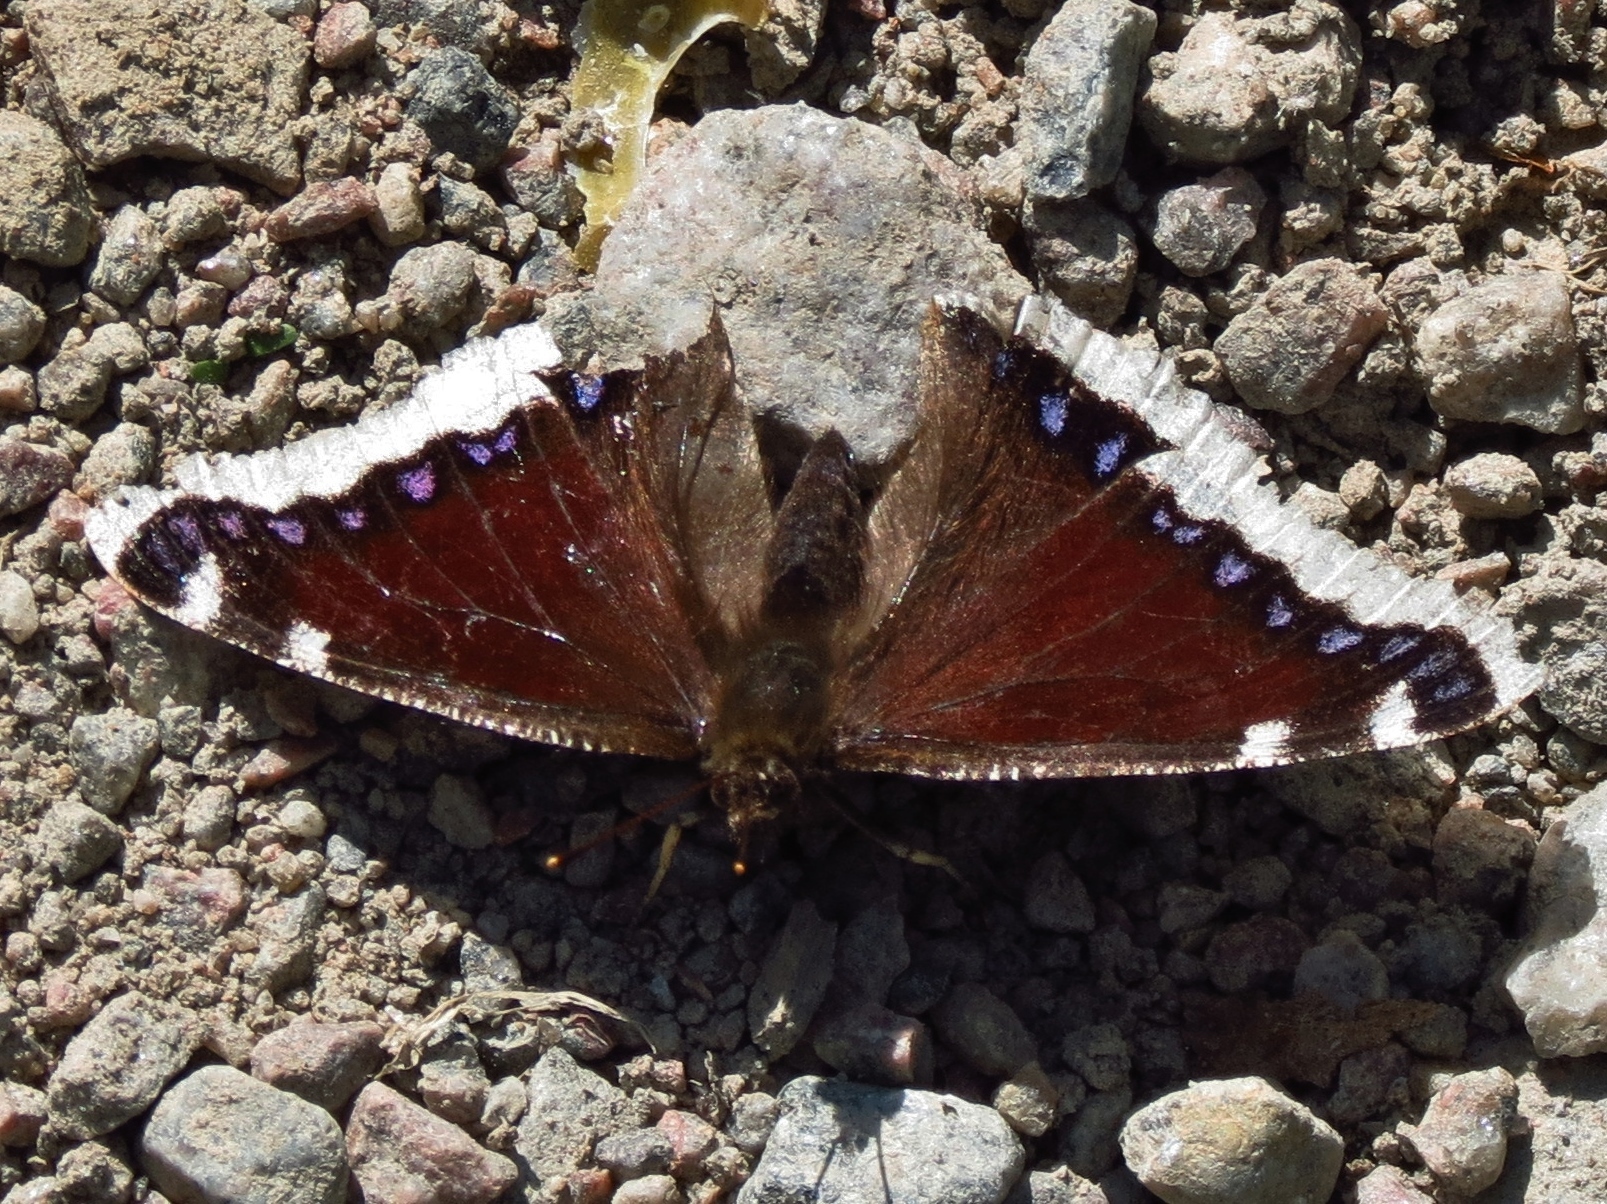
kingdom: Animalia
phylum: Arthropoda
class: Insecta
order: Lepidoptera
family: Nymphalidae
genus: Nymphalis
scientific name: Nymphalis antiopa
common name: Camberwell beauty
